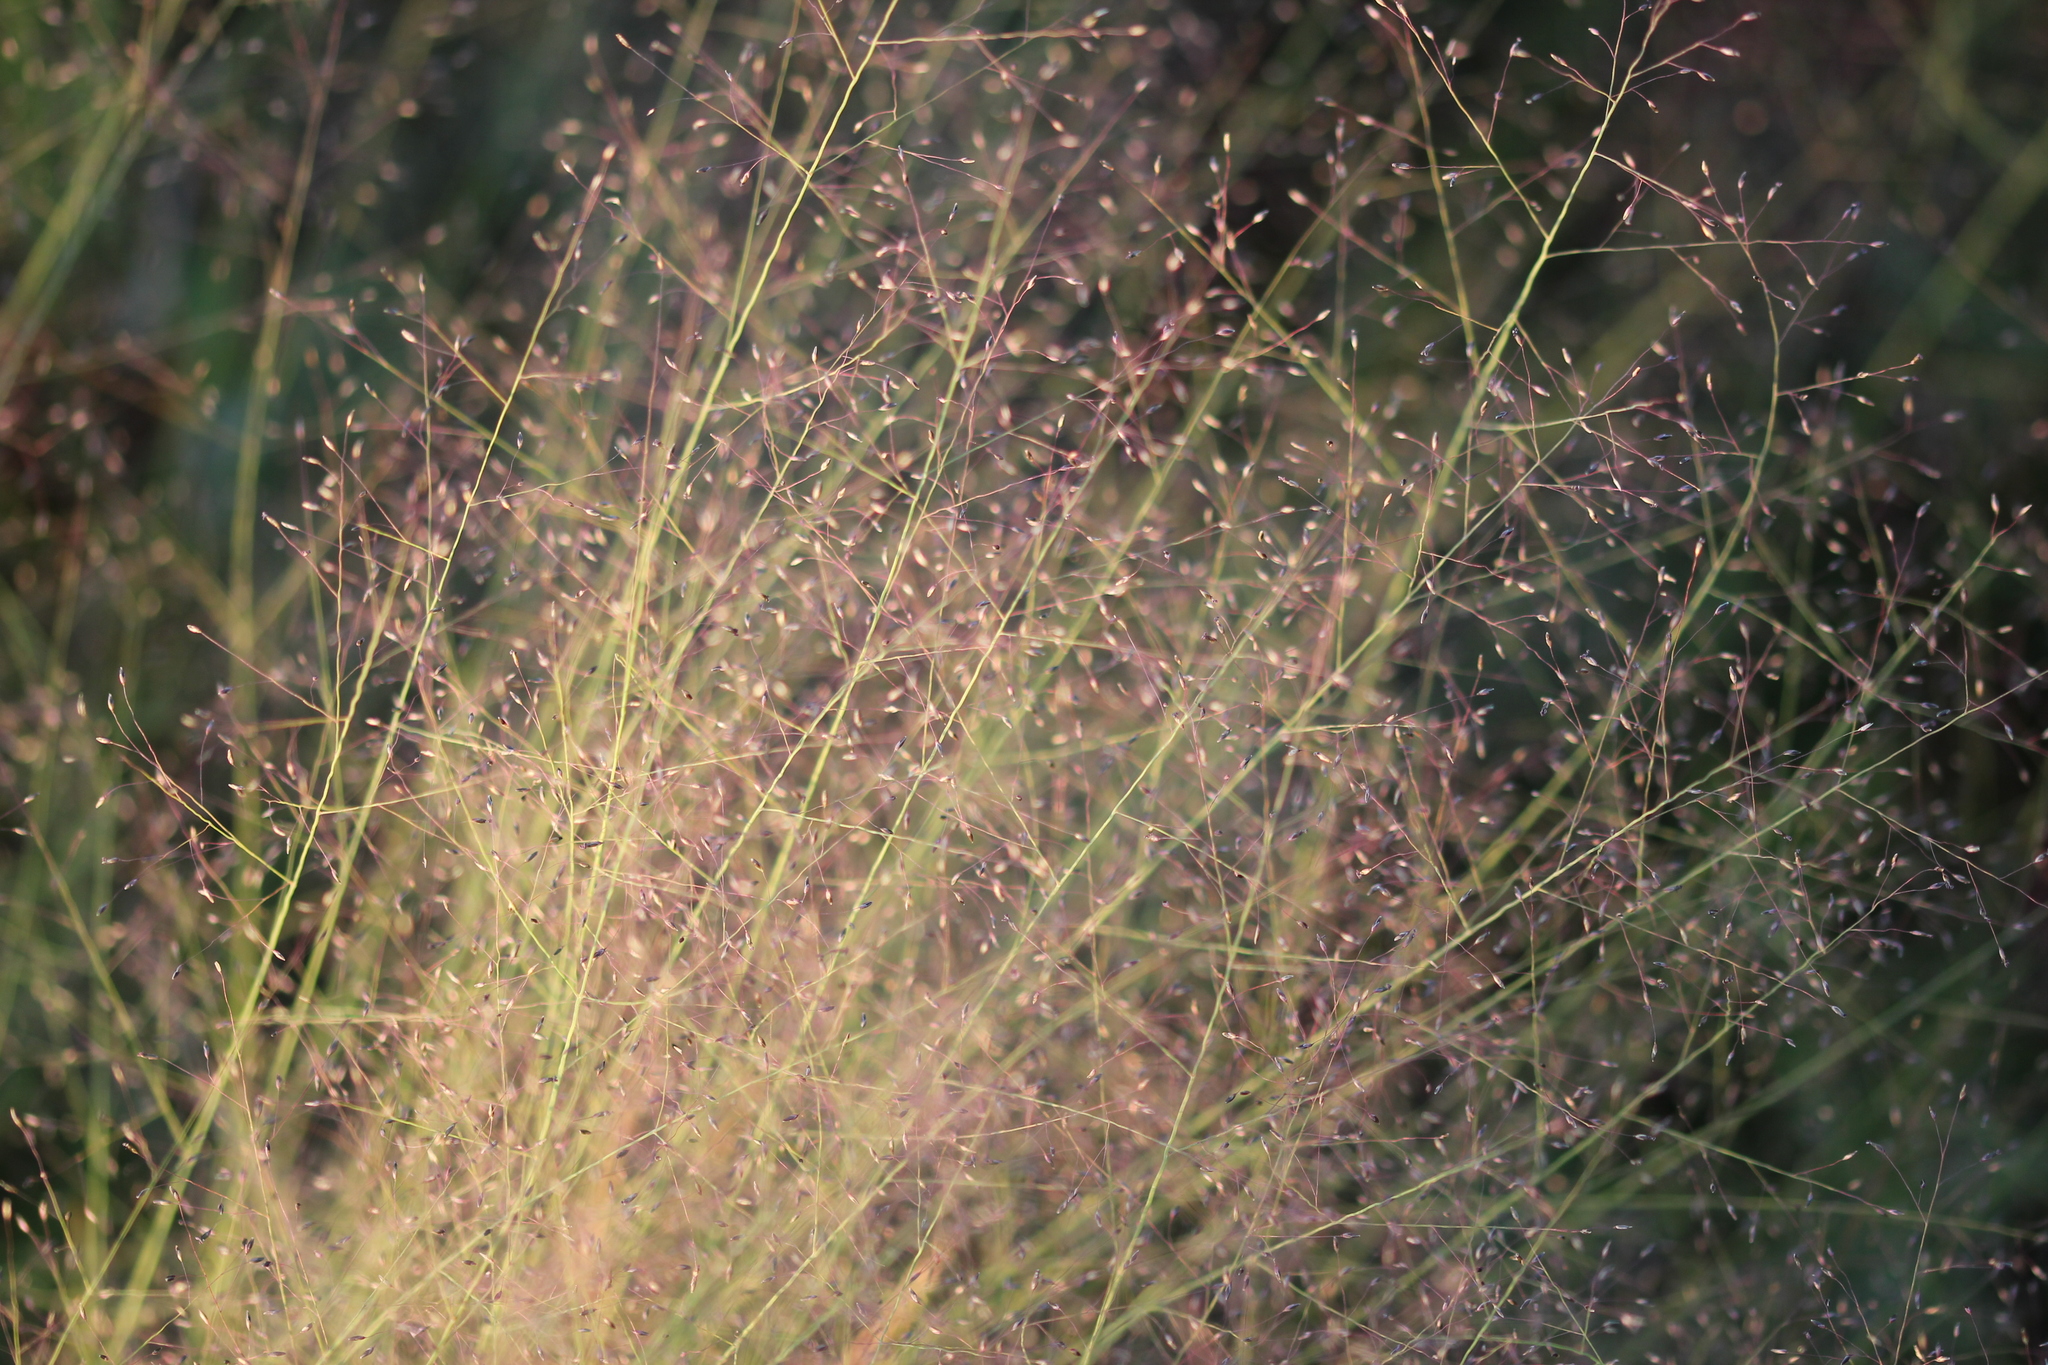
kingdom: Plantae
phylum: Tracheophyta
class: Liliopsida
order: Poales
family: Poaceae
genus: Muhlenbergia
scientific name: Muhlenbergia uniflora
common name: Bog muhly
